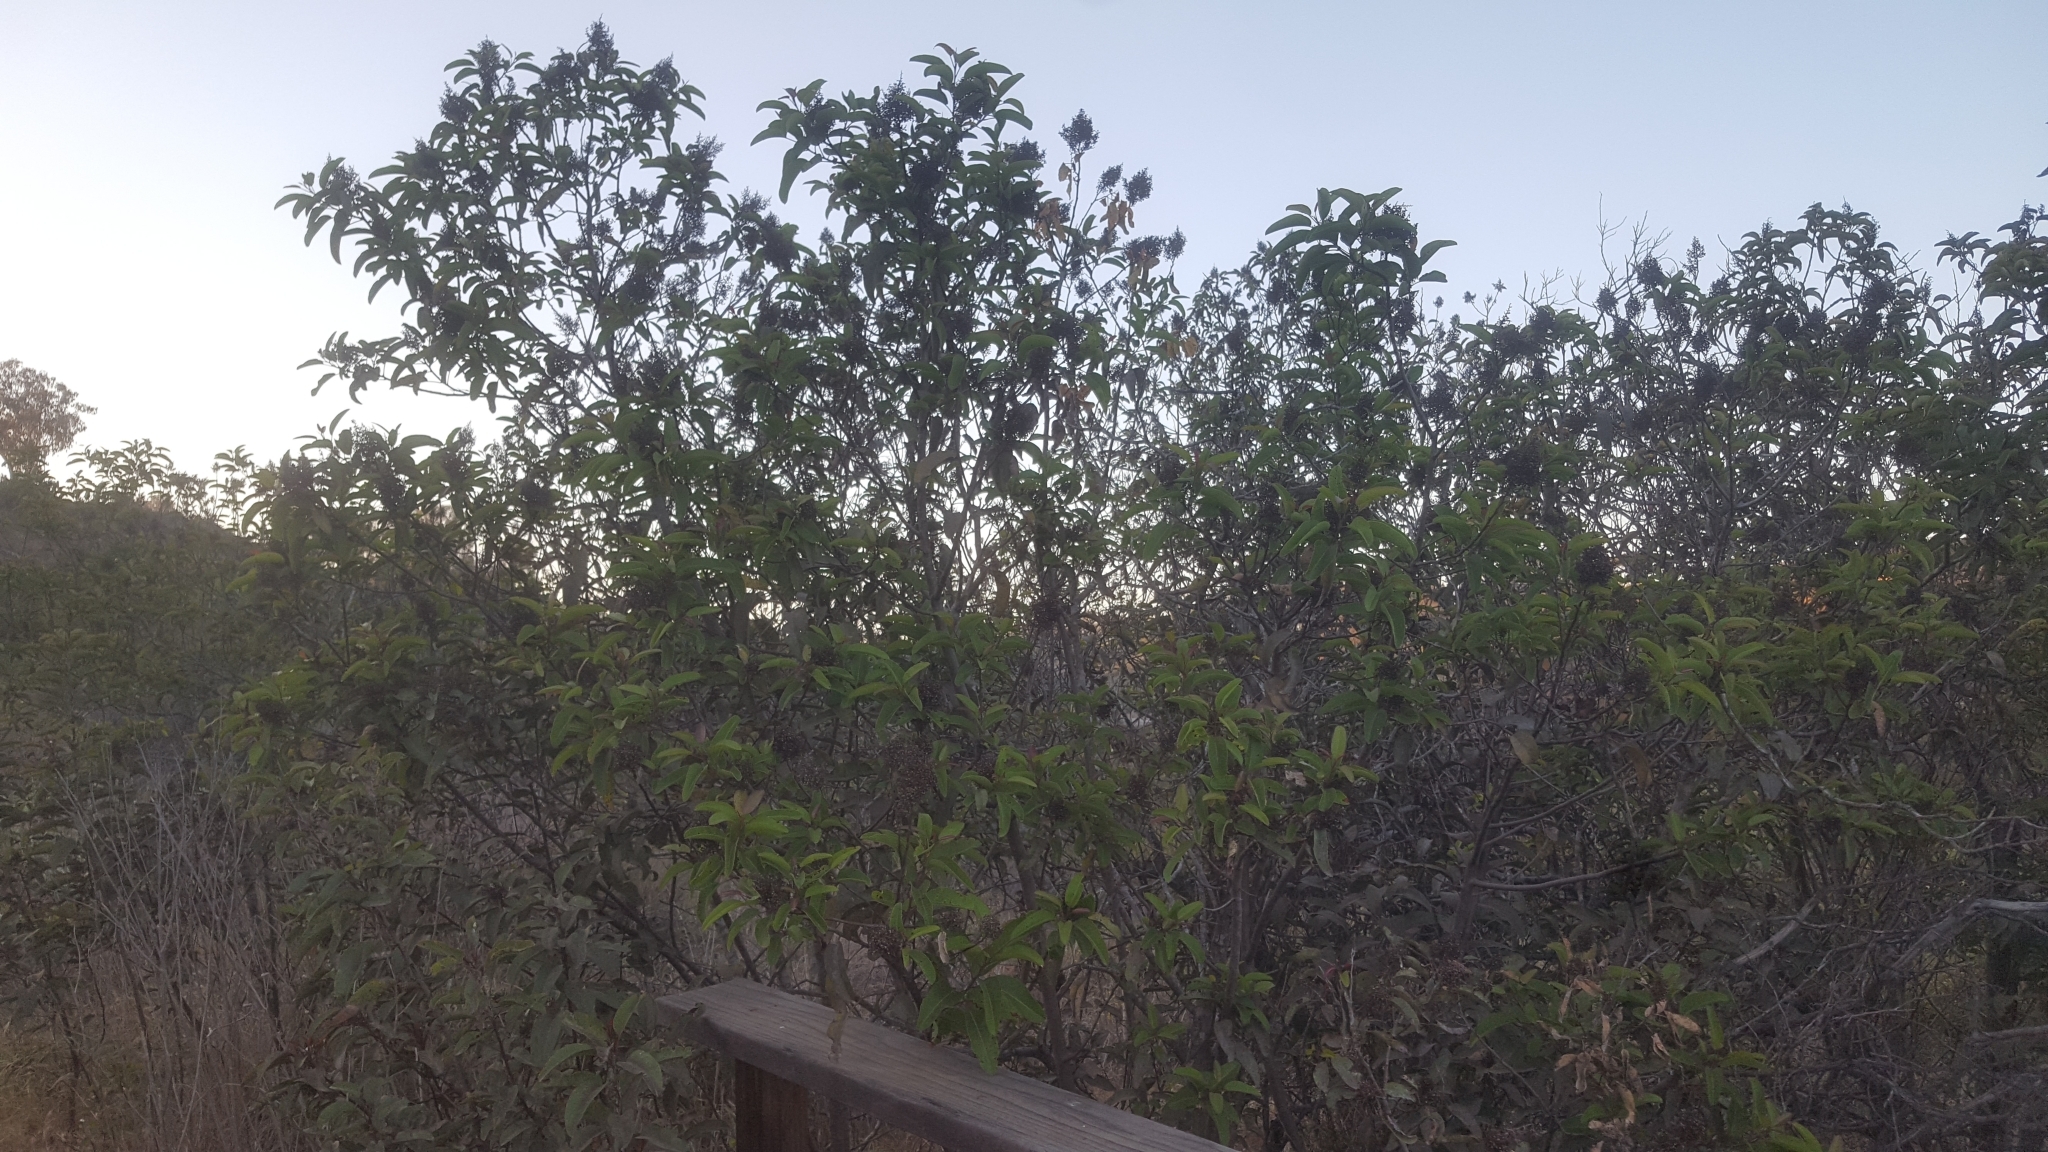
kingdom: Plantae
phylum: Tracheophyta
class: Magnoliopsida
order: Sapindales
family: Anacardiaceae
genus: Malosma
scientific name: Malosma laurina
